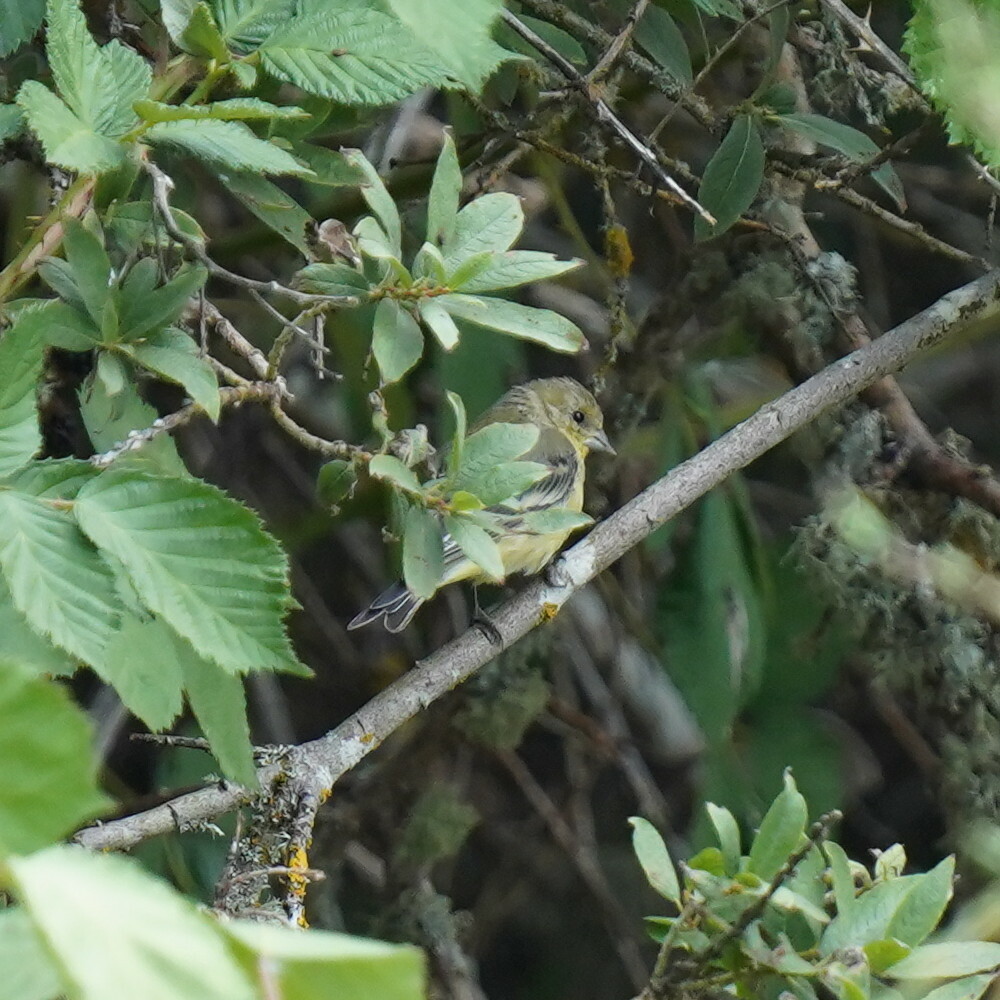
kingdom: Animalia
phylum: Chordata
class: Aves
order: Passeriformes
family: Fringillidae
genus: Spinus
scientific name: Spinus psaltria
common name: Lesser goldfinch
